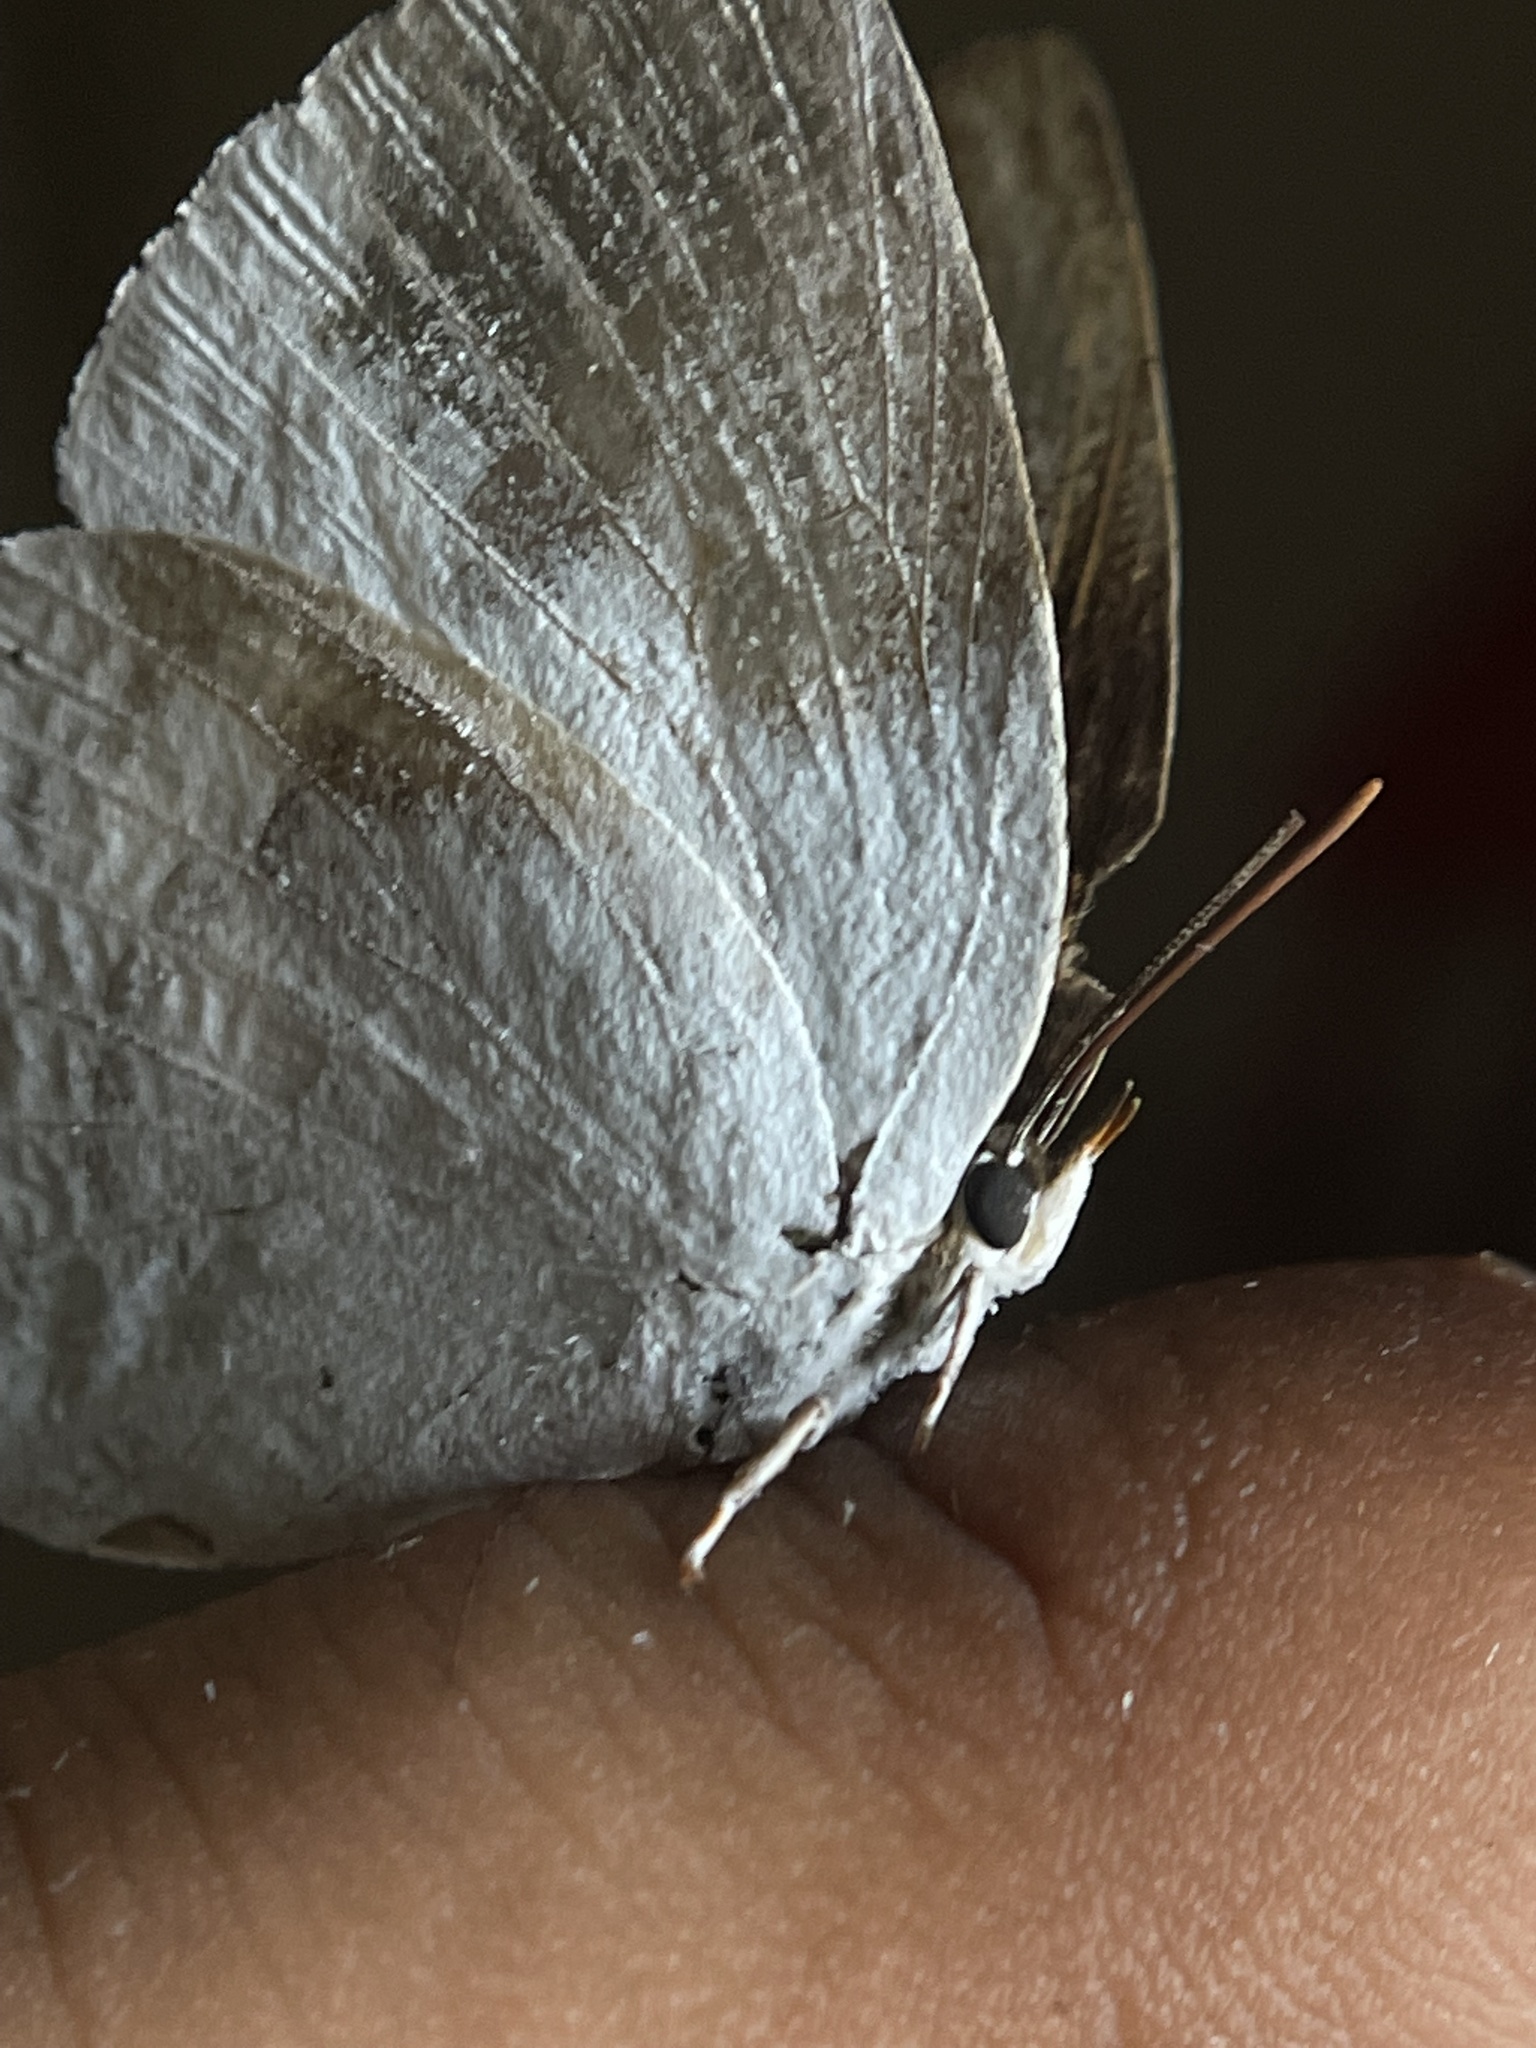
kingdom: Animalia
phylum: Arthropoda
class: Insecta
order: Lepidoptera
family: Lycaenidae
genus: Curetis
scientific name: Curetis thetis
